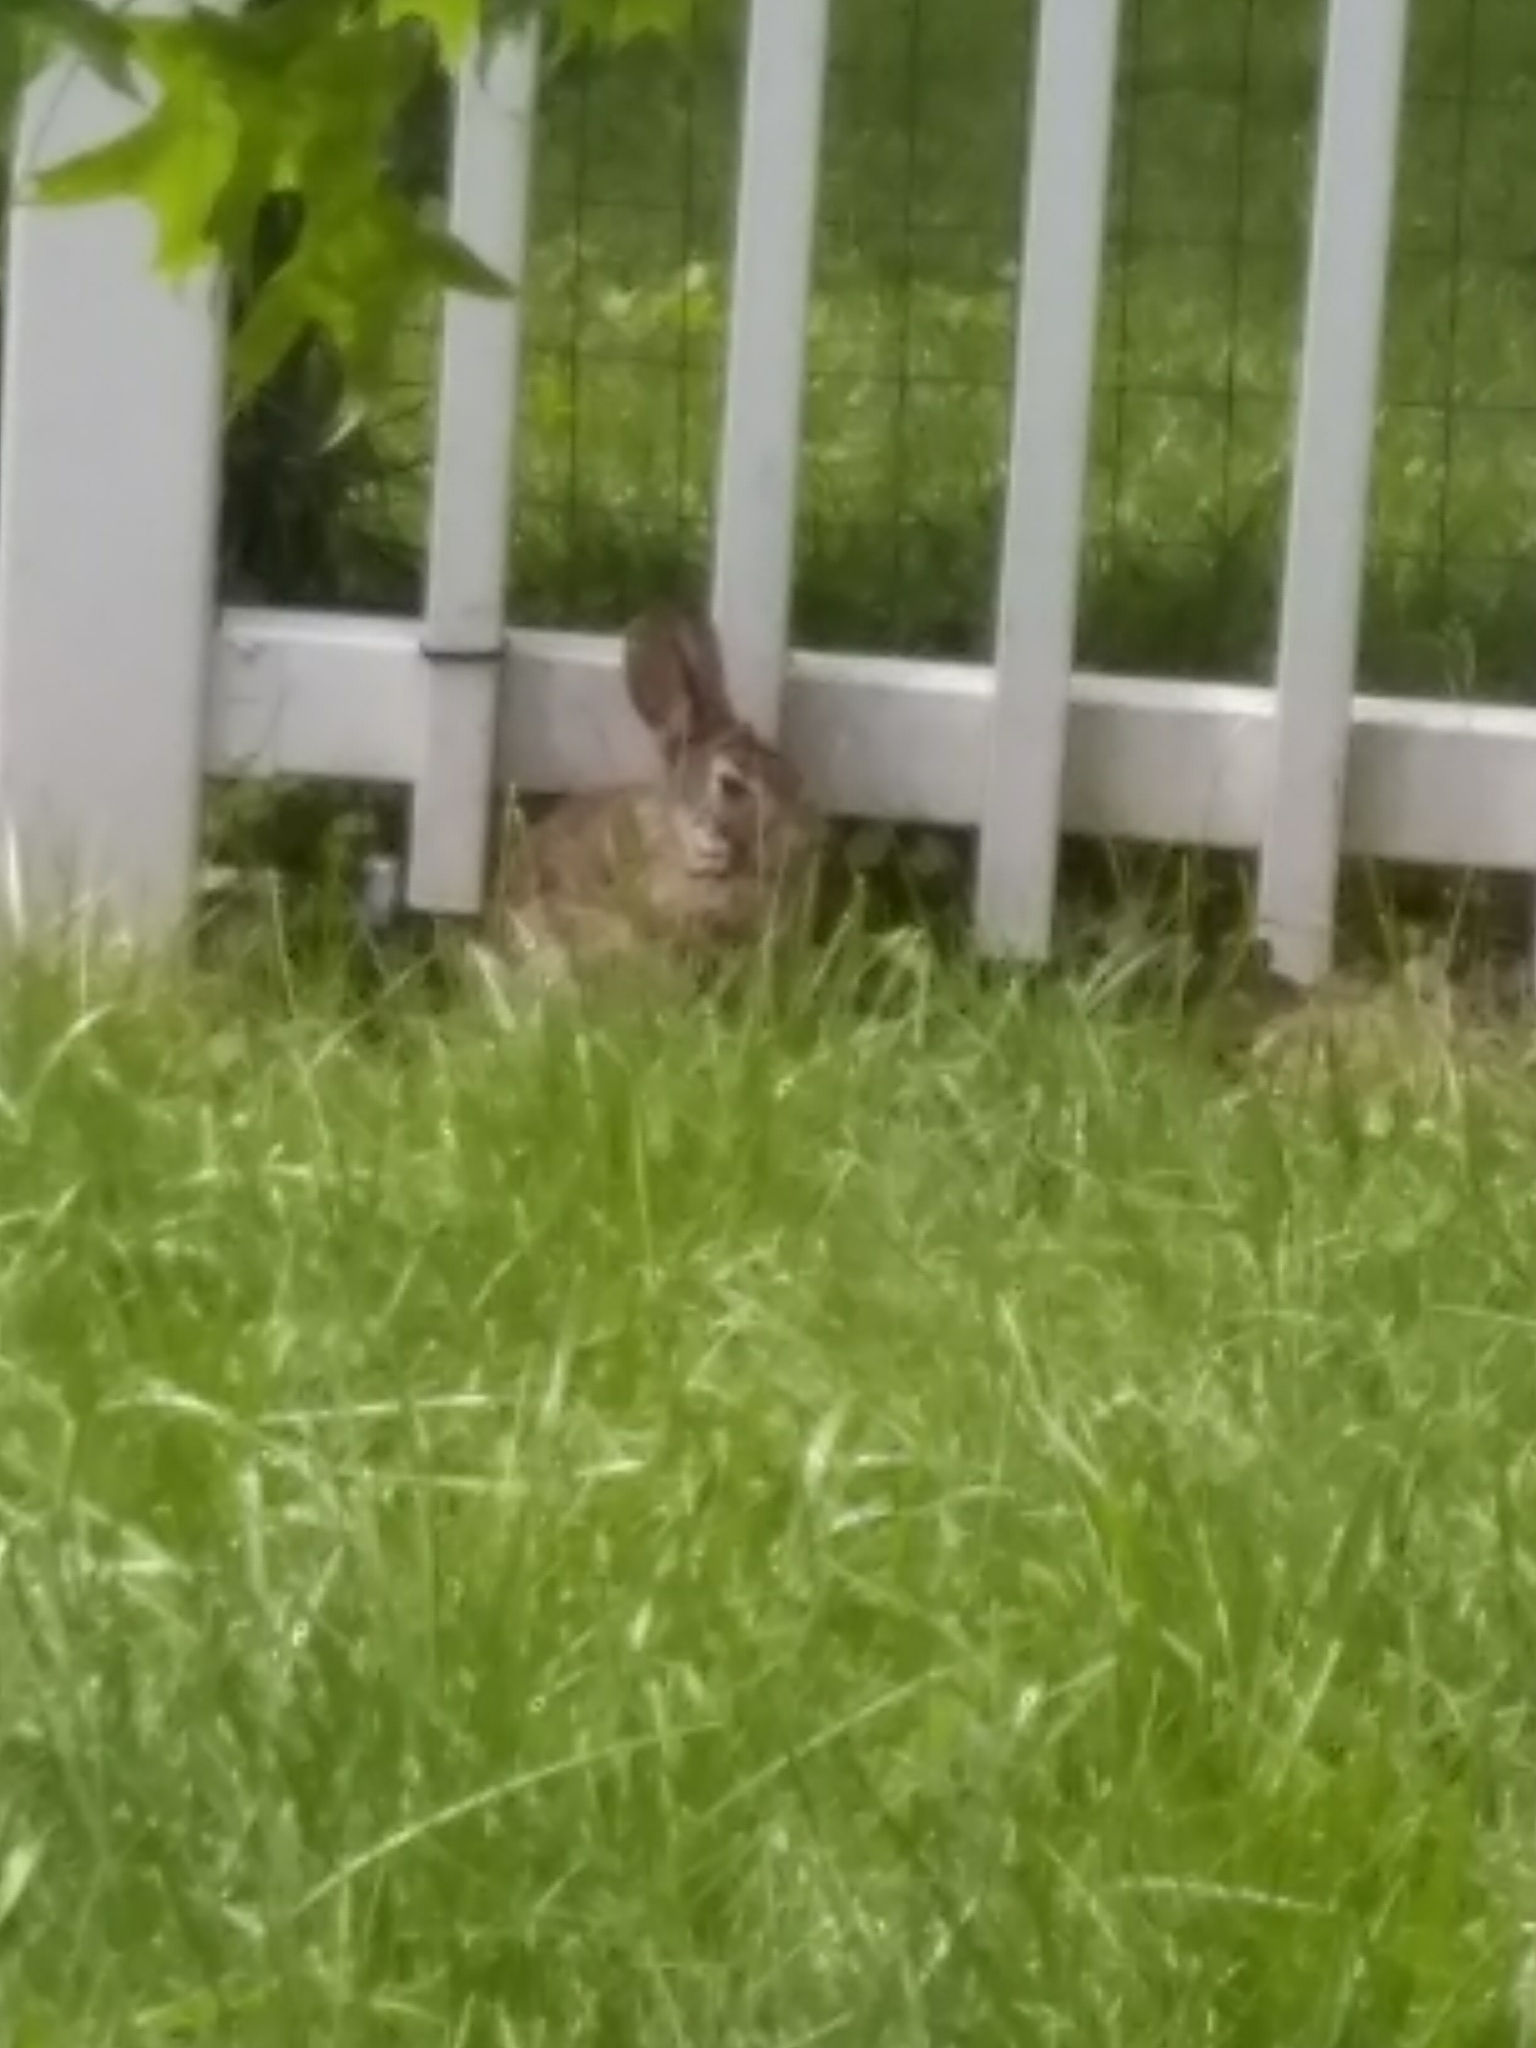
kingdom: Animalia
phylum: Chordata
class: Mammalia
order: Lagomorpha
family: Leporidae
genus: Sylvilagus
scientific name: Sylvilagus floridanus
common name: Eastern cottontail
